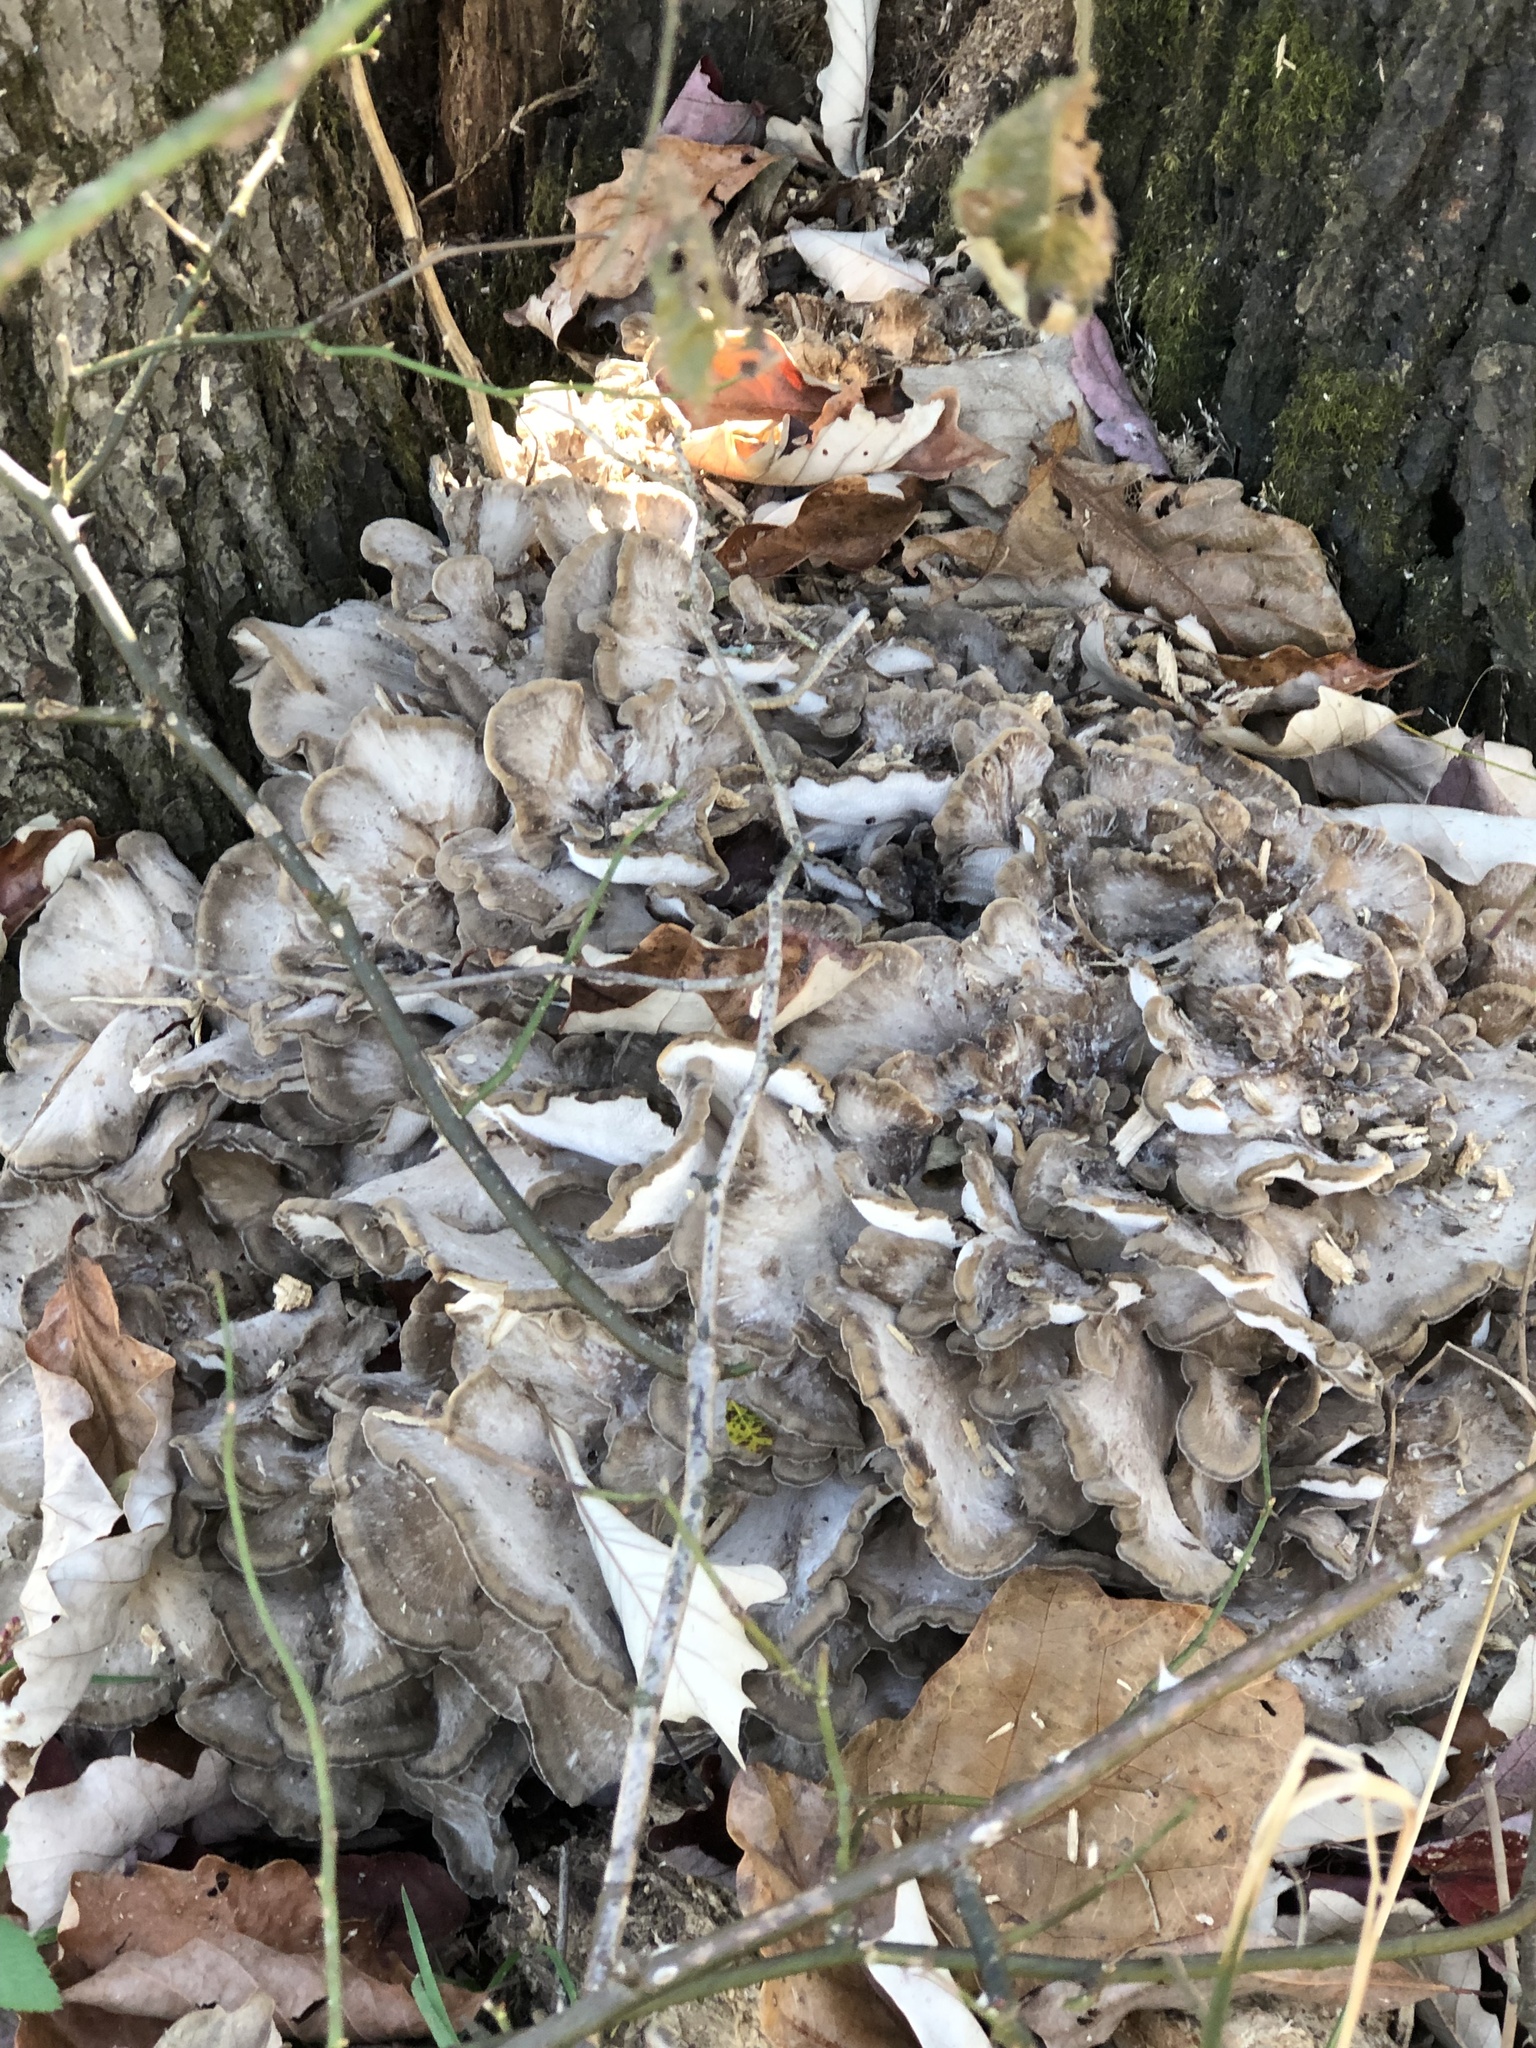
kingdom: Fungi
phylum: Basidiomycota
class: Agaricomycetes
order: Polyporales
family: Grifolaceae
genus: Grifola
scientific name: Grifola frondosa
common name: Hen of the woods
